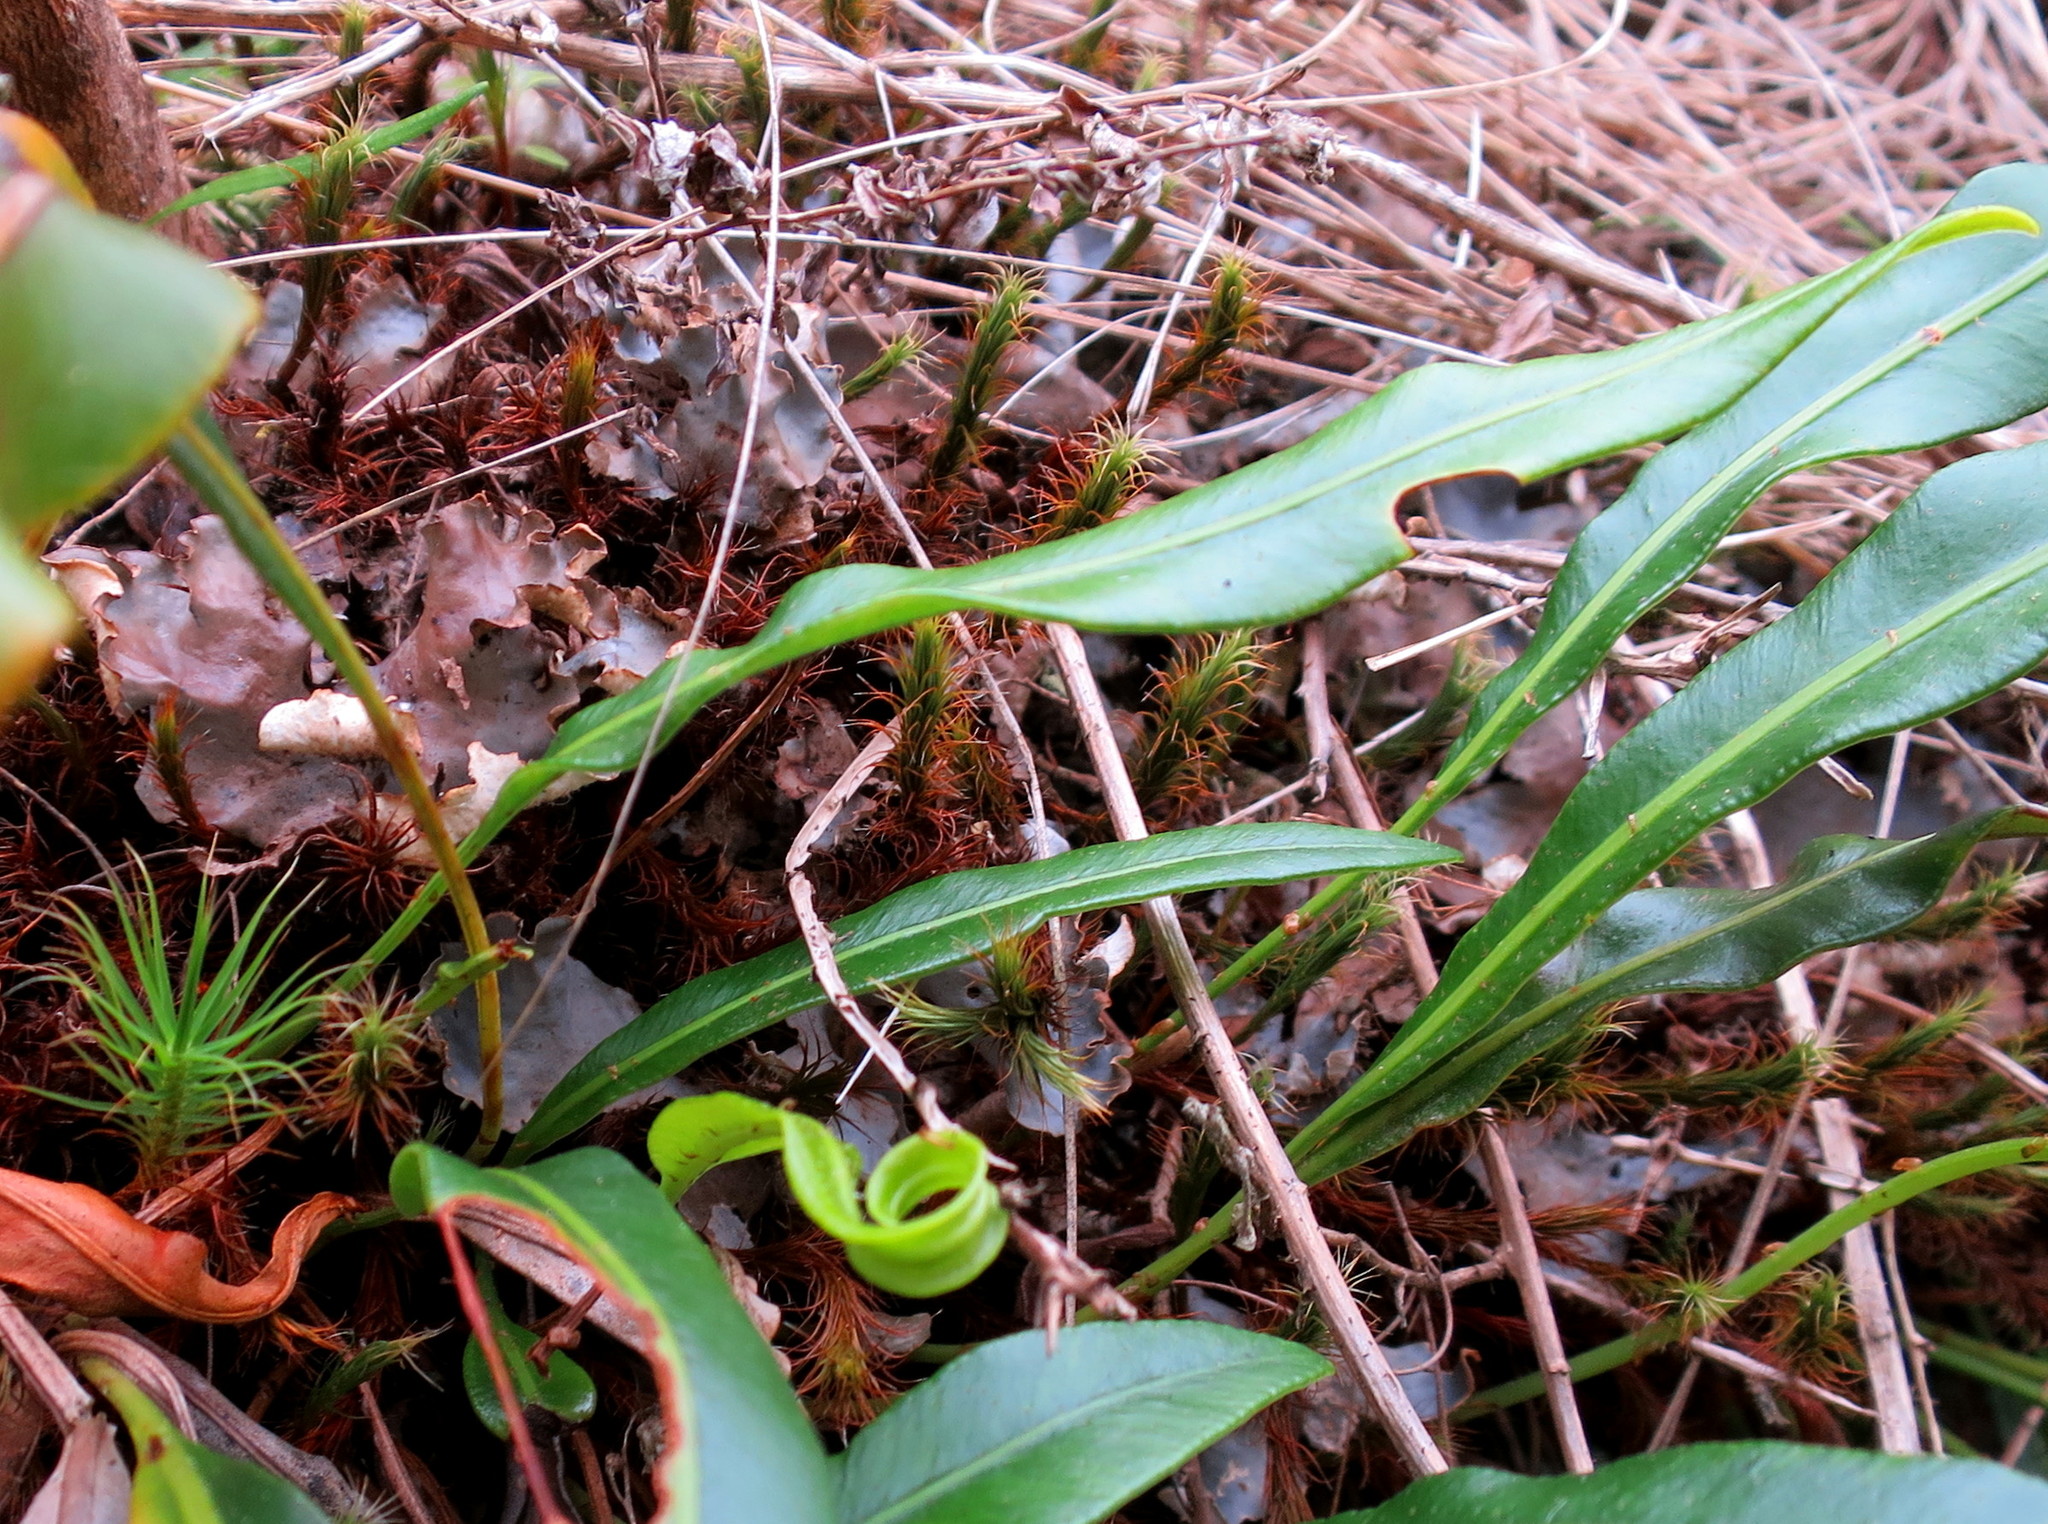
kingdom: Plantae
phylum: Tracheophyta
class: Polypodiopsida
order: Polypodiales
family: Dryopteridaceae
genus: Elaphoglossum
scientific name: Elaphoglossum acrostichoides
